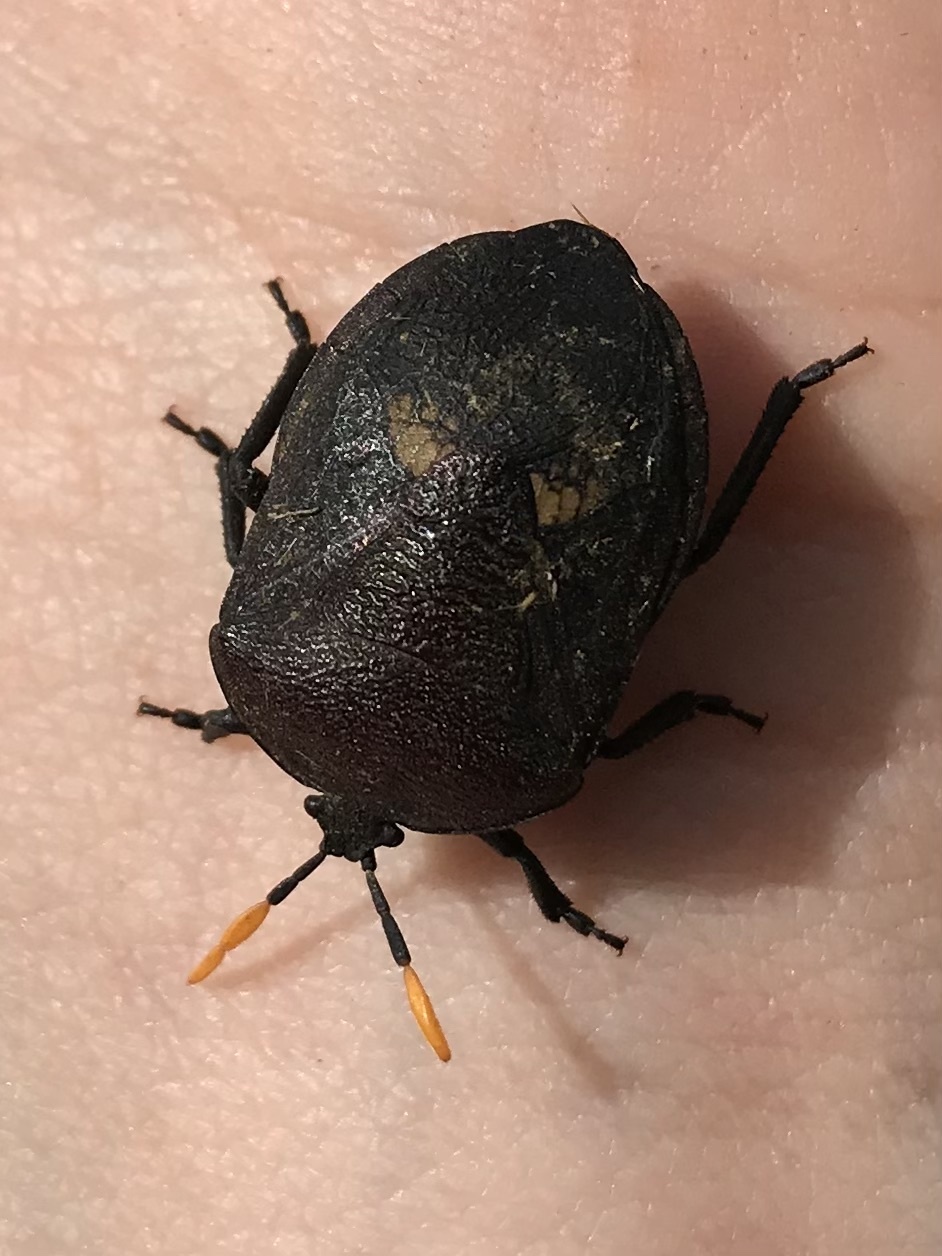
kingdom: Animalia
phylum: Arthropoda
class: Insecta
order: Hemiptera
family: Dinidoridae
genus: Coridius
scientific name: Coridius nubilus
